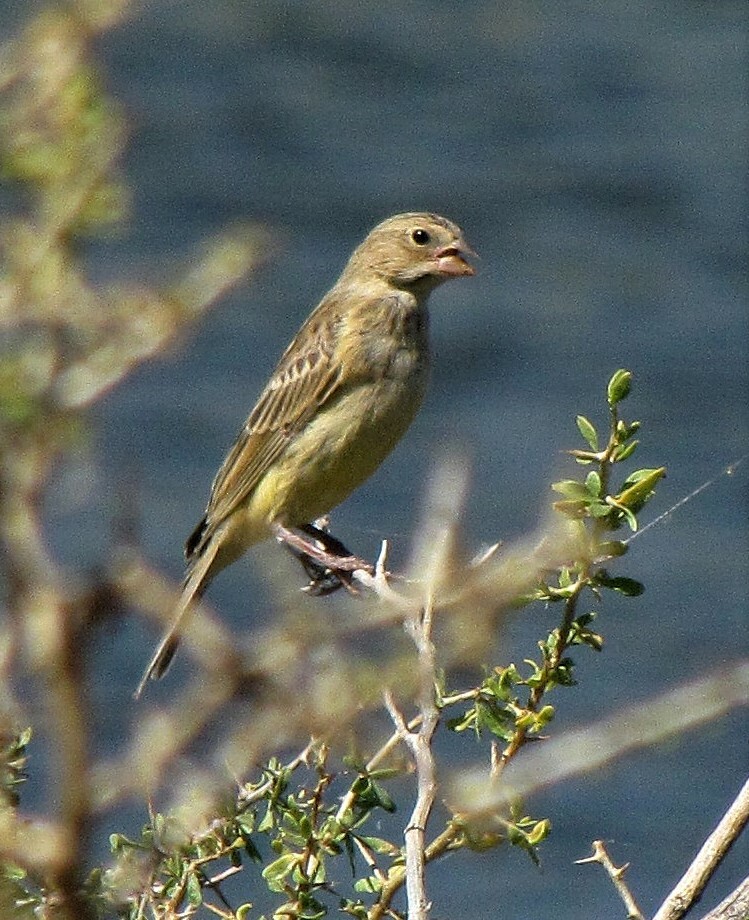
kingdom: Animalia
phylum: Chordata
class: Aves
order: Passeriformes
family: Thraupidae
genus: Sicalis
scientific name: Sicalis luteola
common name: Grassland yellow-finch
